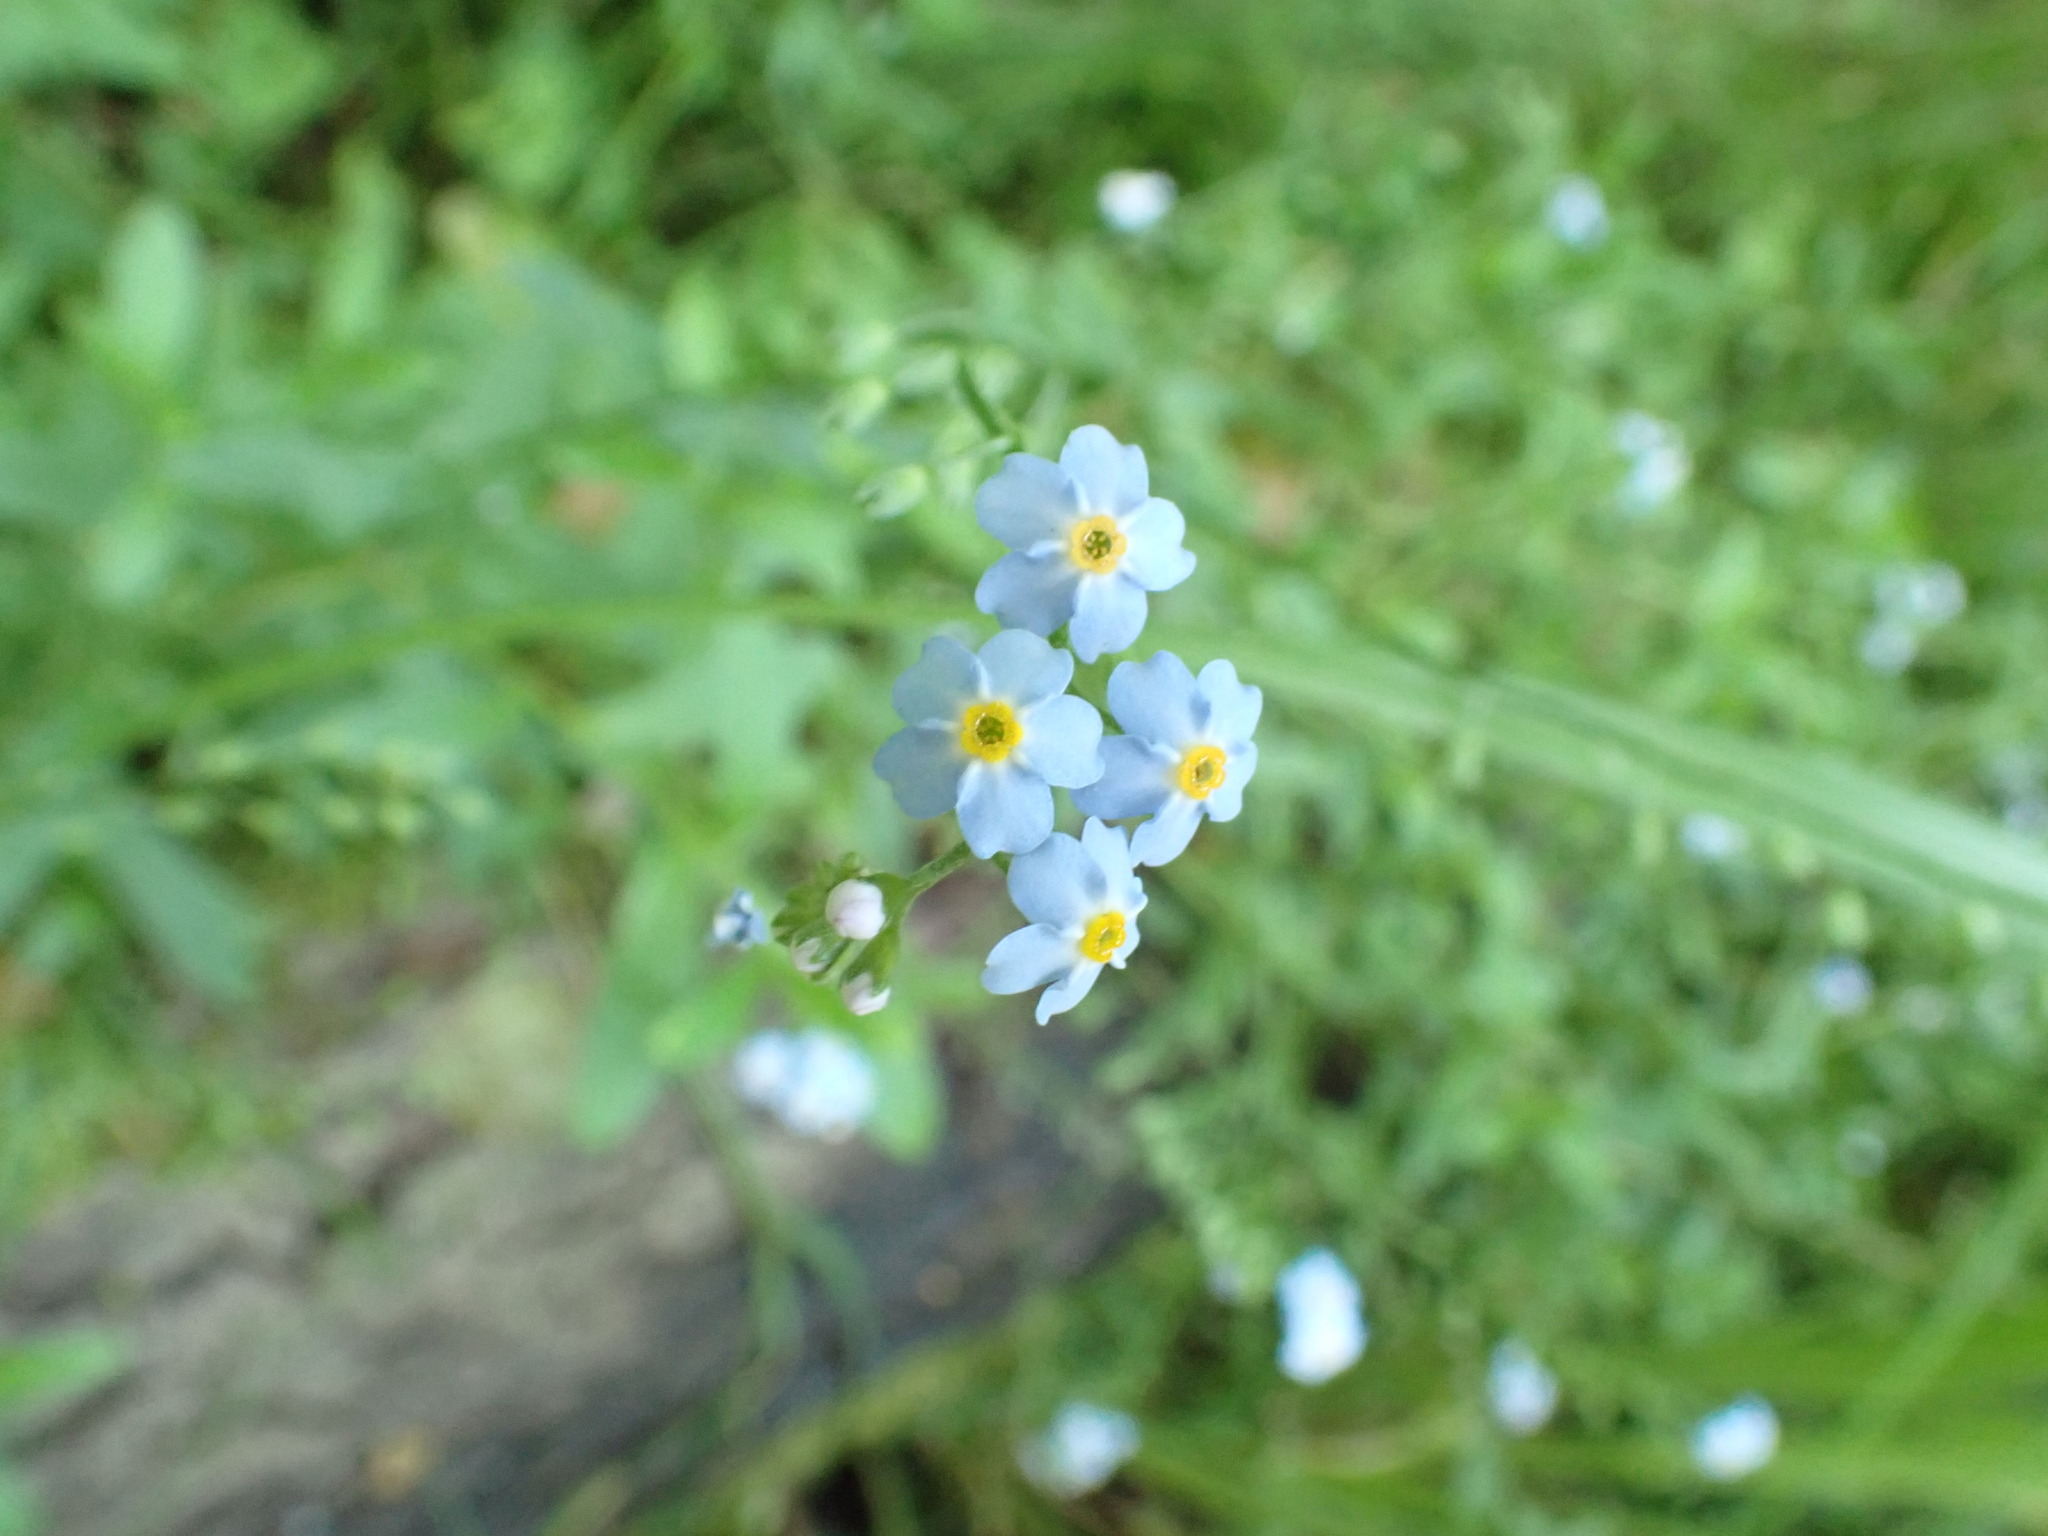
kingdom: Plantae
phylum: Tracheophyta
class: Magnoliopsida
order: Boraginales
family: Boraginaceae
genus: Myosotis
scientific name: Myosotis scorpioides
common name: Water forget-me-not
